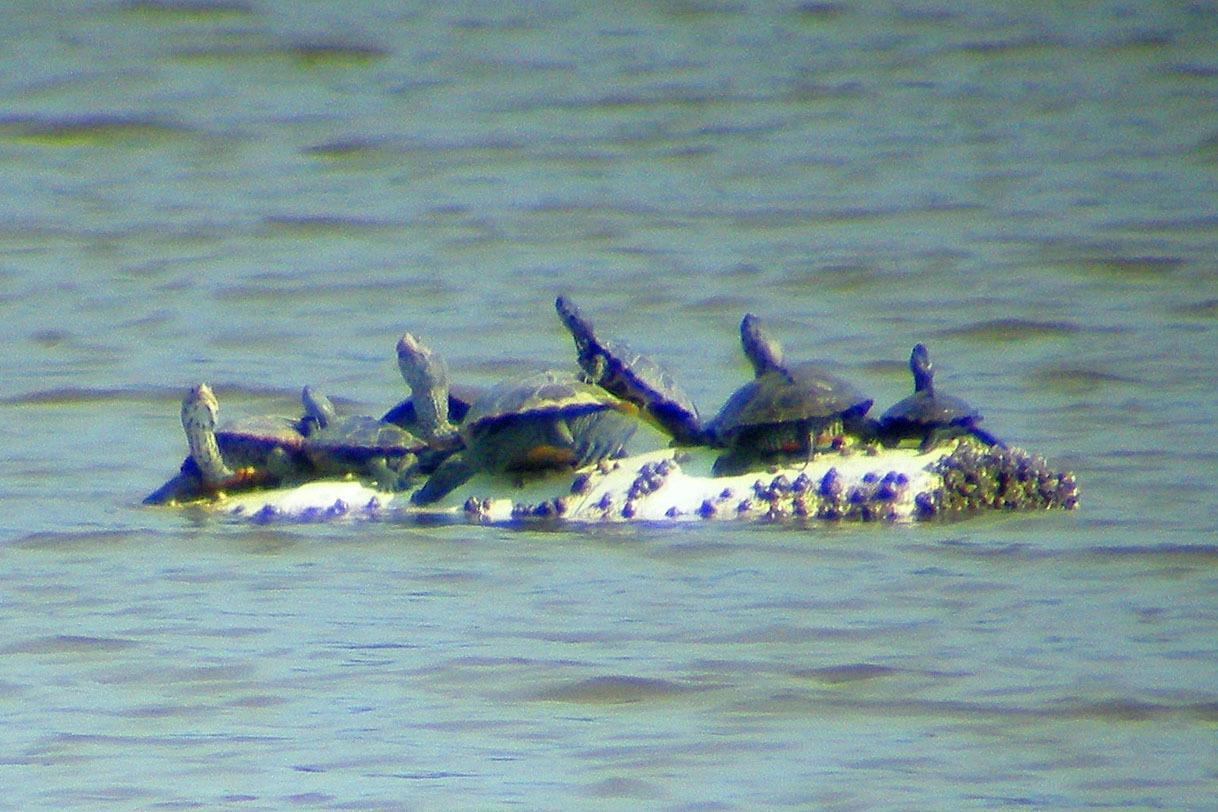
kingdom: Animalia
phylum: Chordata
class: Testudines
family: Emydidae
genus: Malaclemys
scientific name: Malaclemys terrapin
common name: Diamondback terrapin
